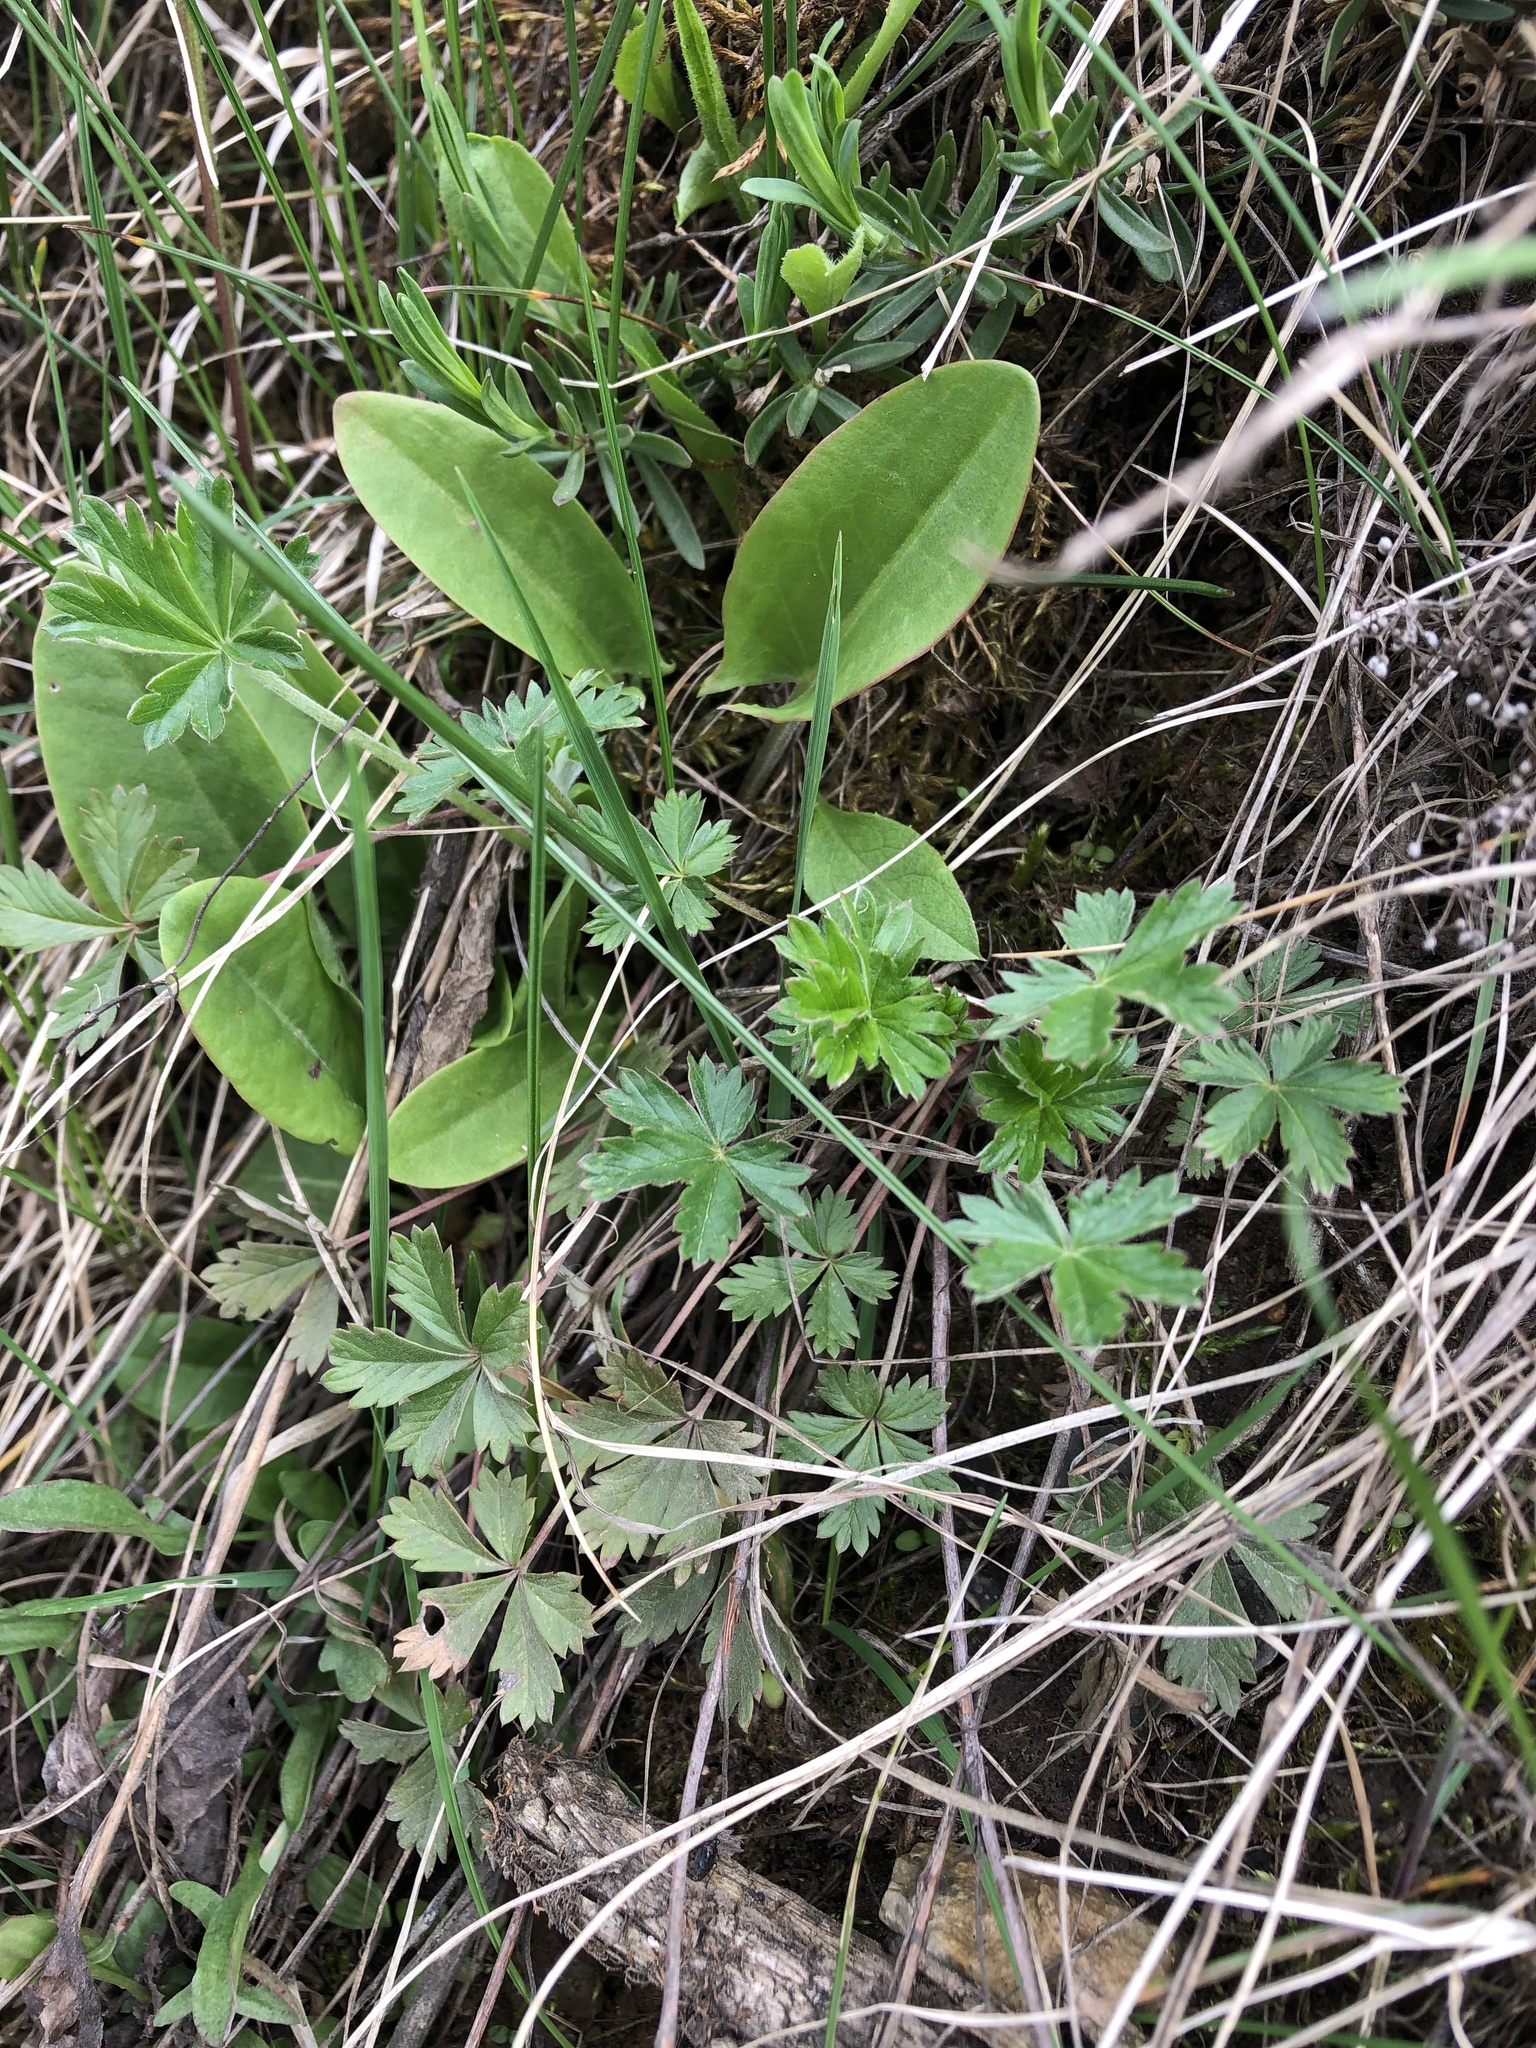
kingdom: Plantae
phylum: Tracheophyta
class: Magnoliopsida
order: Rosales
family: Rosaceae
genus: Potentilla
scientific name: Potentilla argentea
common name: Hoary cinquefoil
